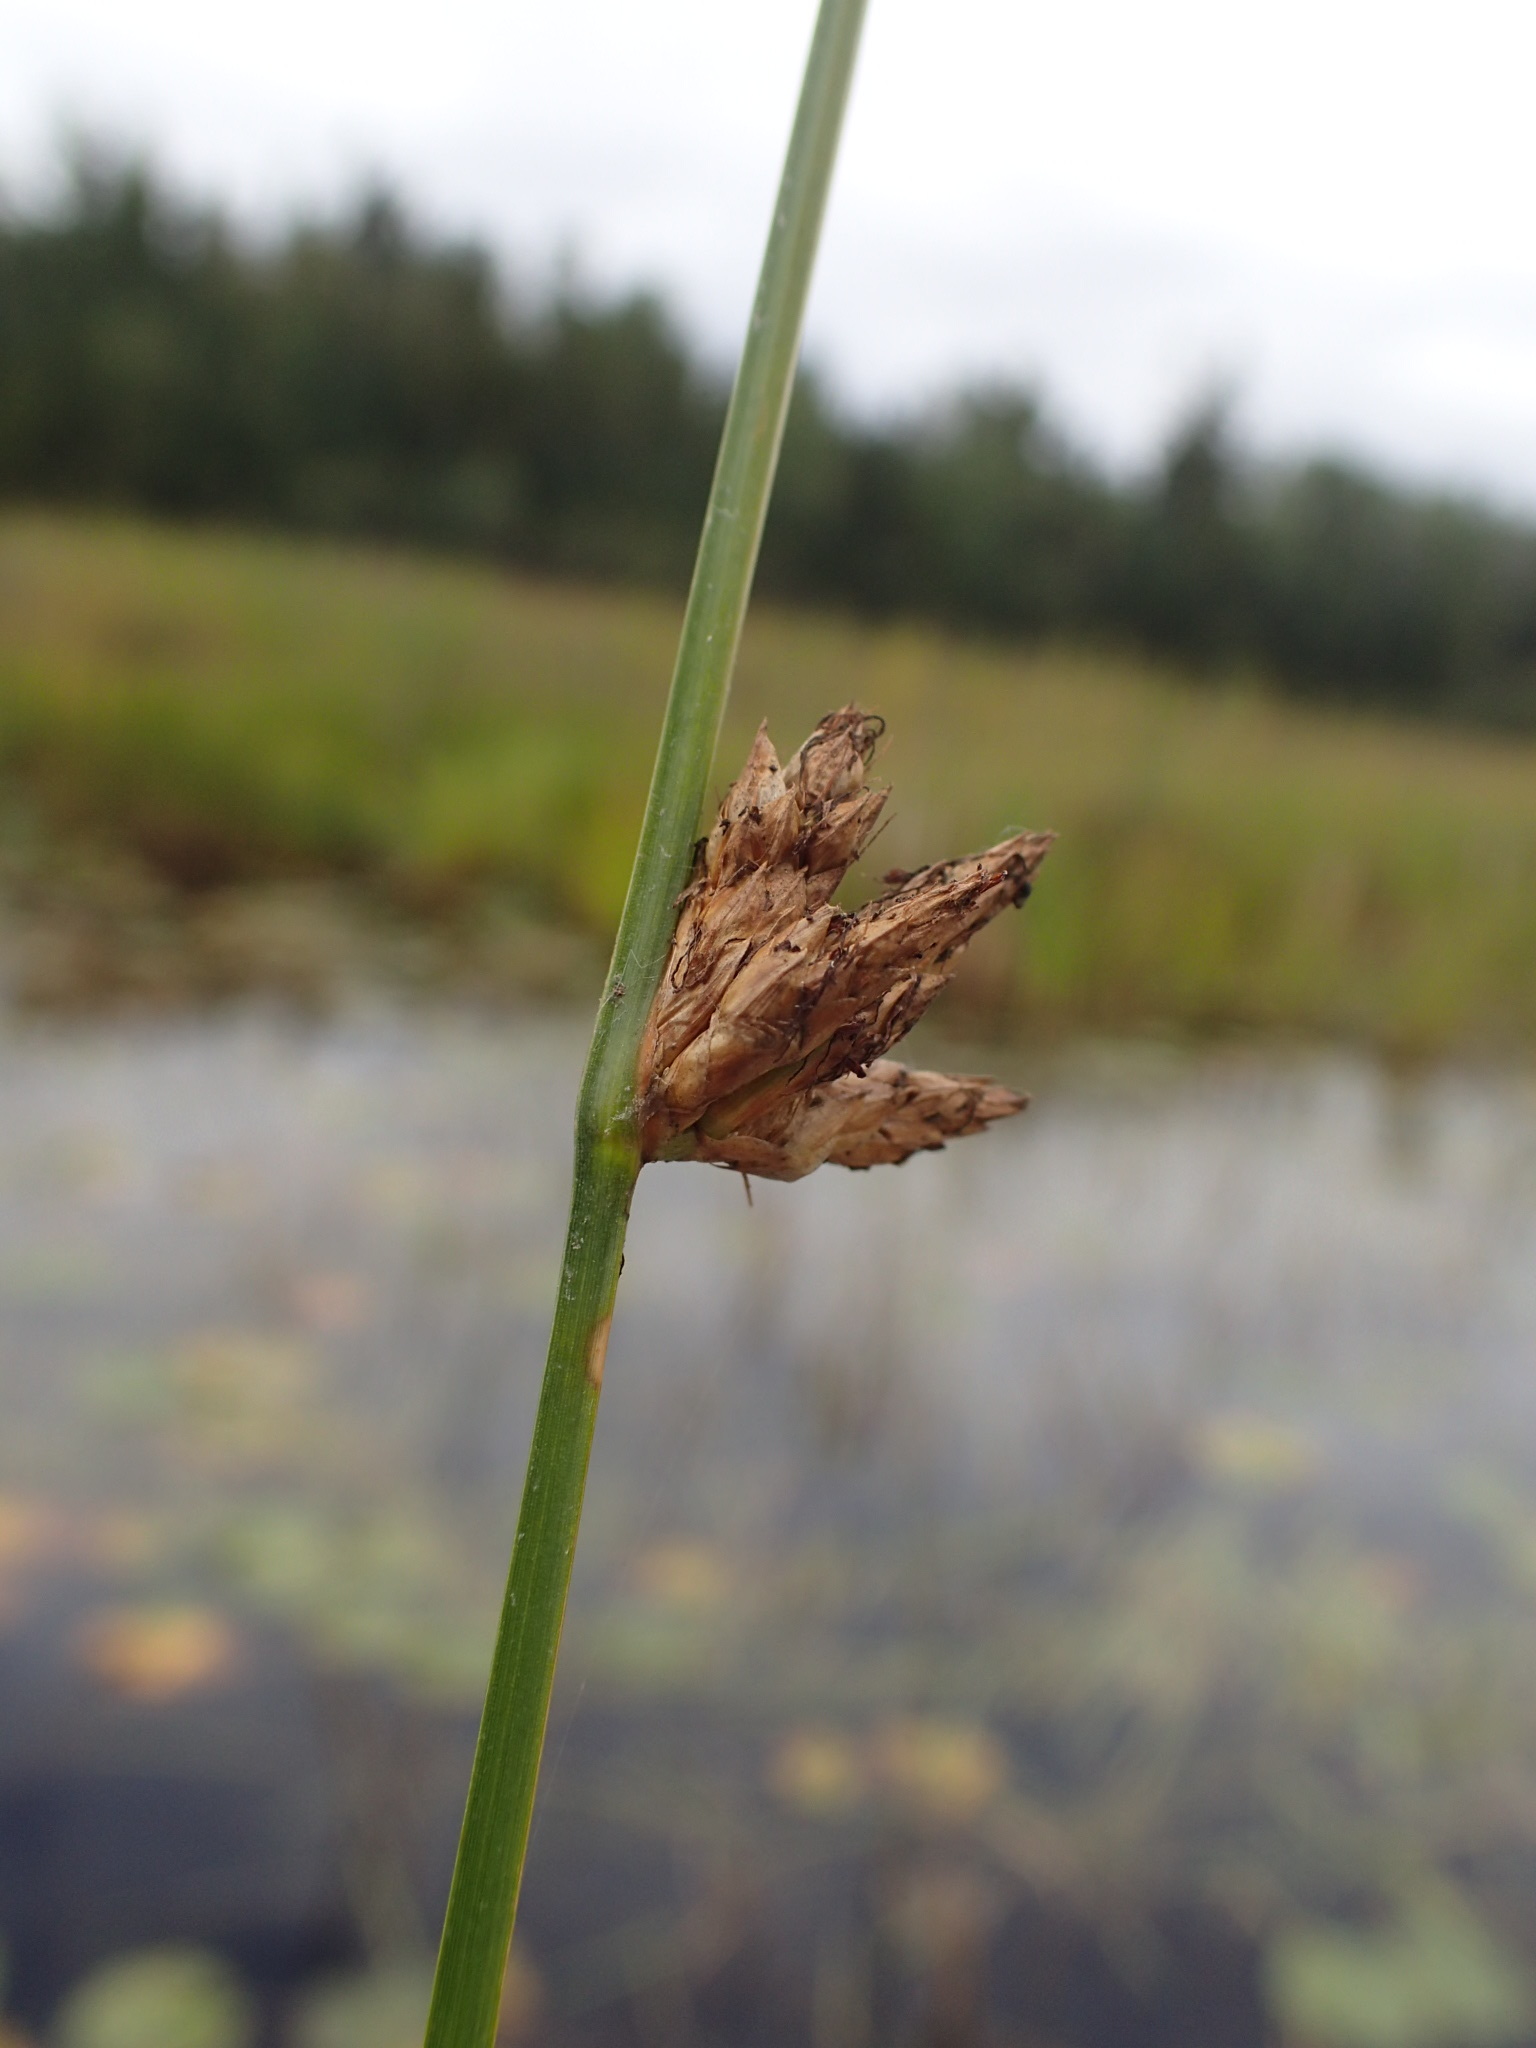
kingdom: Plantae
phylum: Tracheophyta
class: Liliopsida
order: Poales
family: Cyperaceae
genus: Schoenoplectus
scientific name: Schoenoplectus torreyi
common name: Torrey's bulrush
